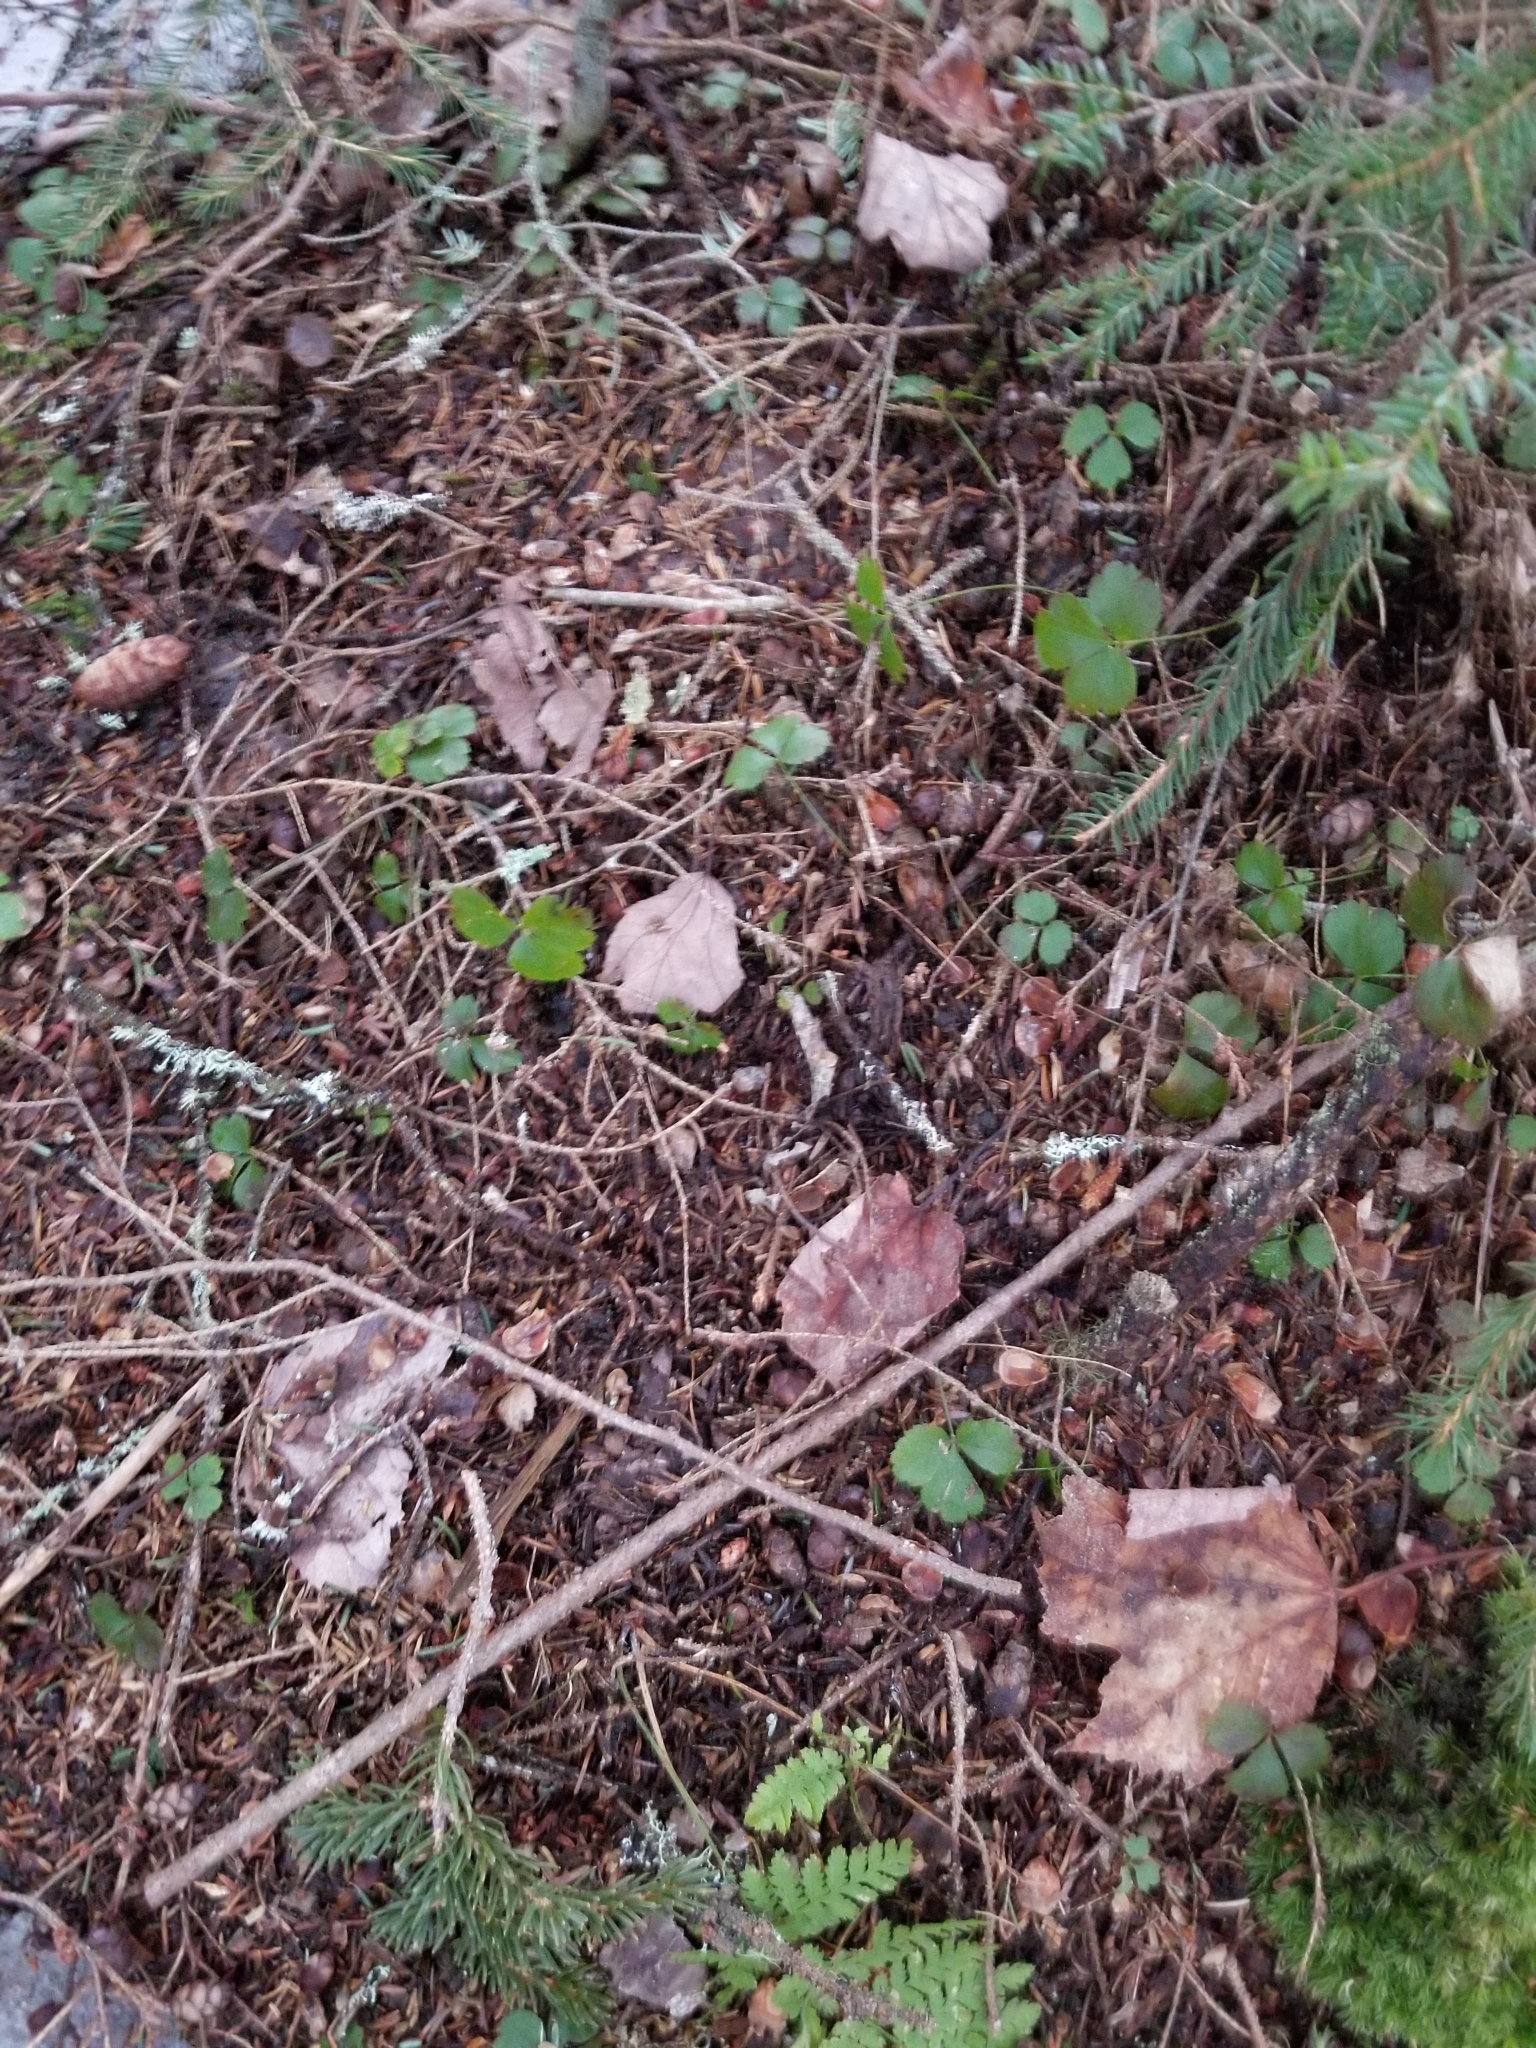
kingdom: Plantae
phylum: Tracheophyta
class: Magnoliopsida
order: Ranunculales
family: Ranunculaceae
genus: Coptis
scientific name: Coptis trifolia
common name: Canker-root
